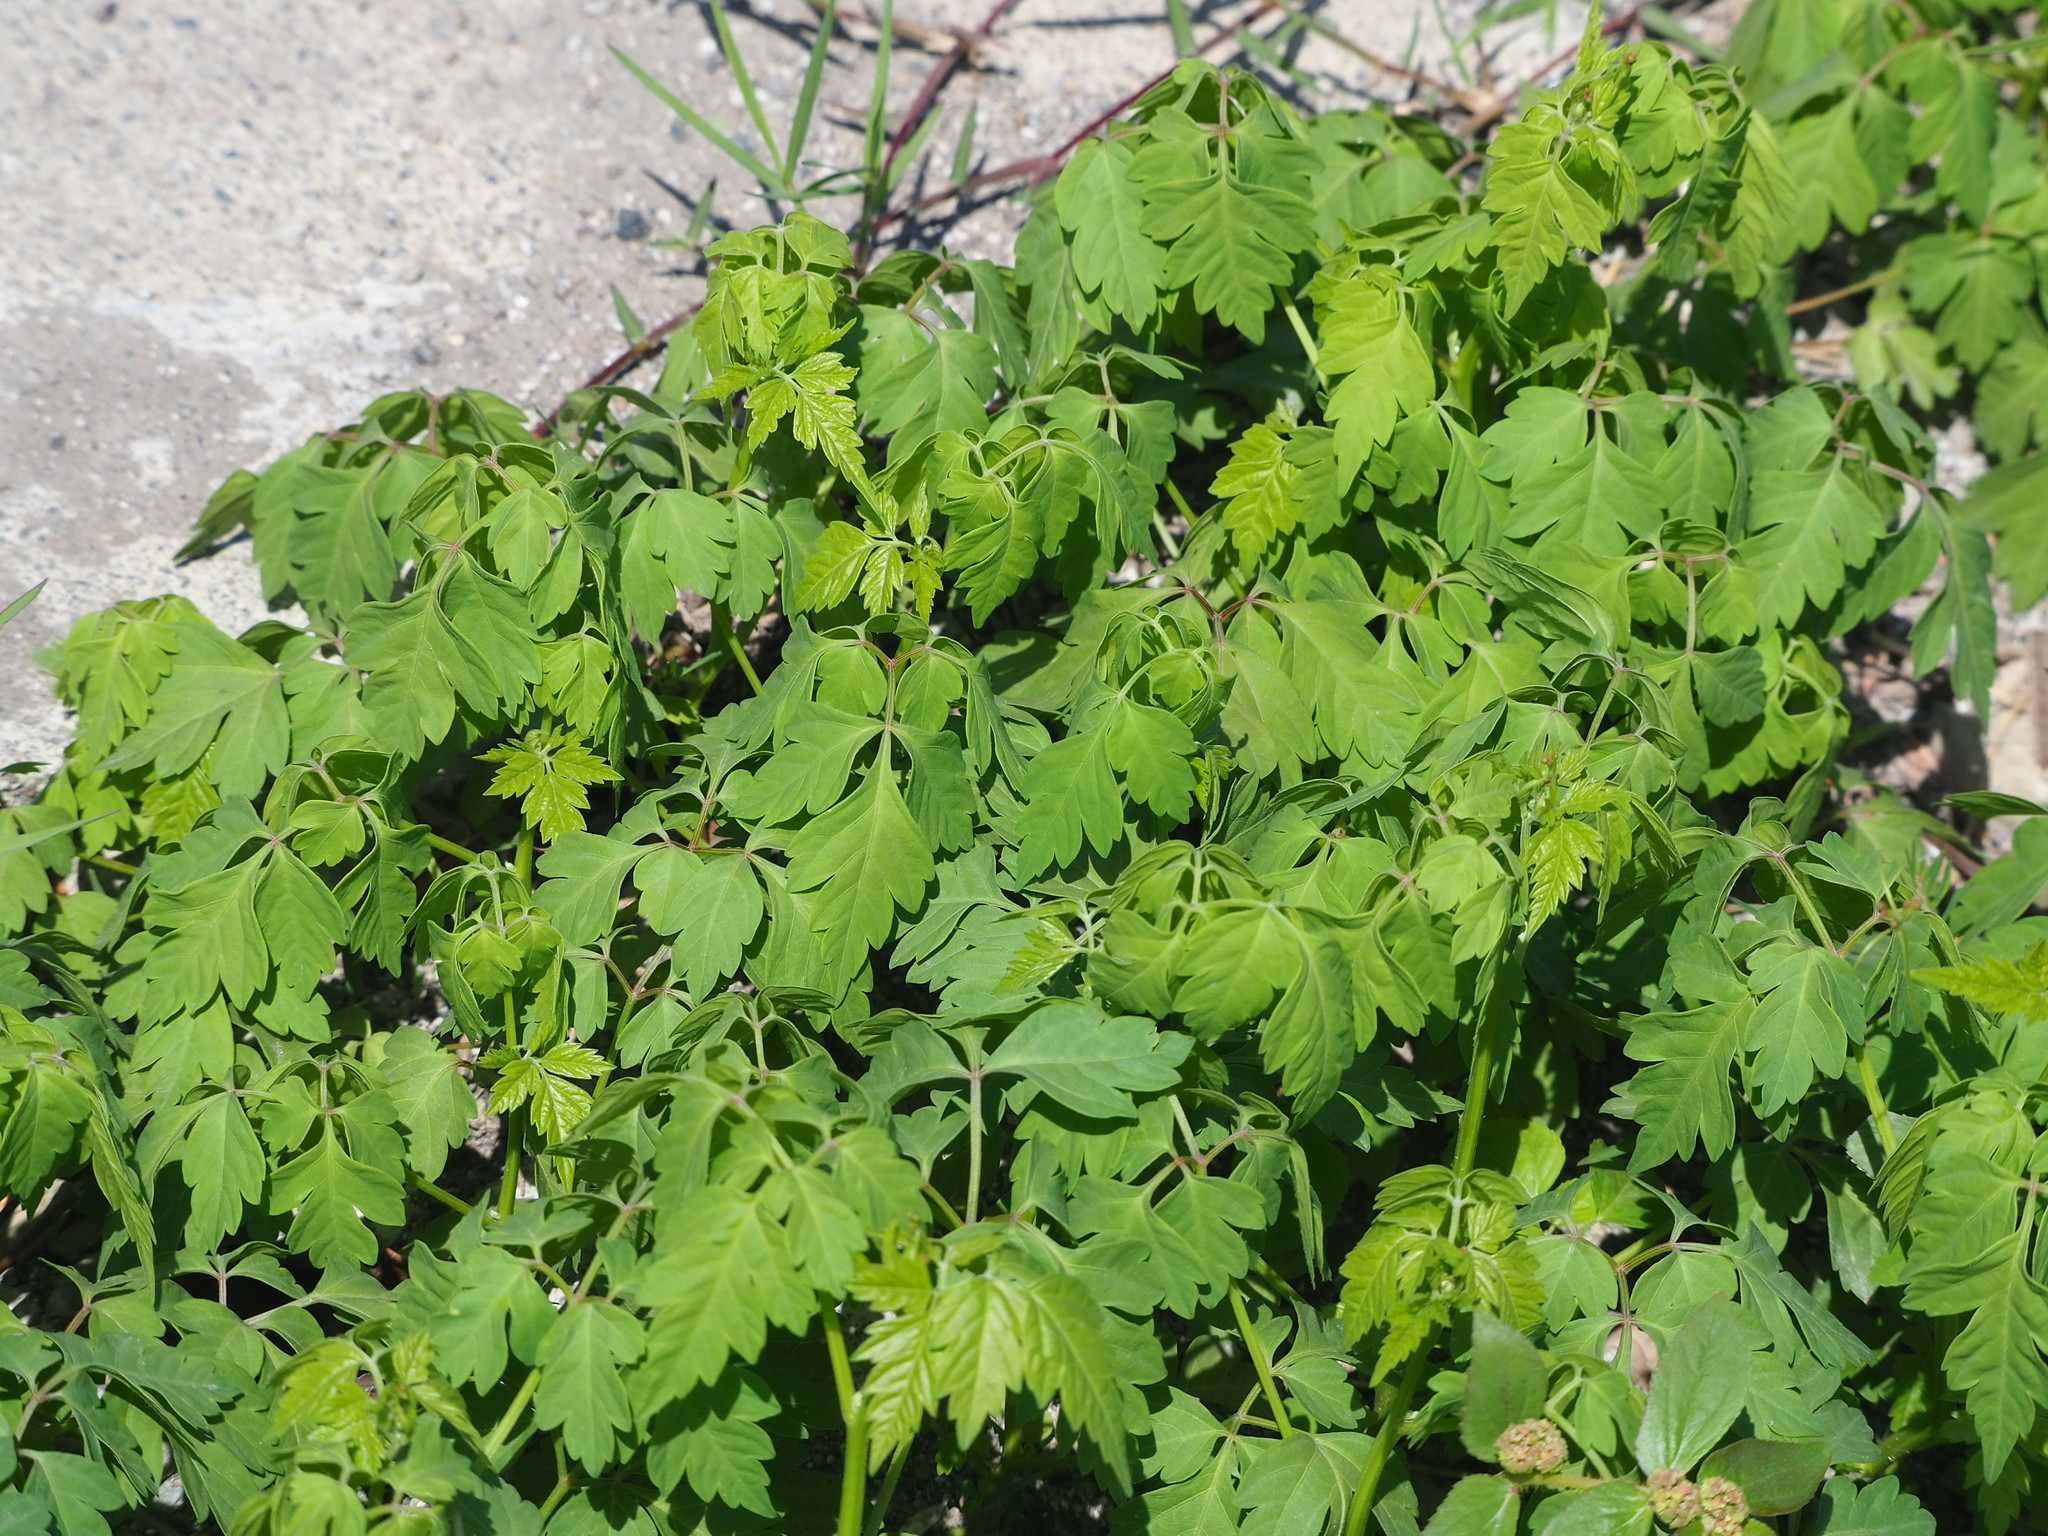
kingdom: Plantae
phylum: Tracheophyta
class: Magnoliopsida
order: Sapindales
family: Sapindaceae
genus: Cardiospermum
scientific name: Cardiospermum halicacabum
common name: Balloon vine
